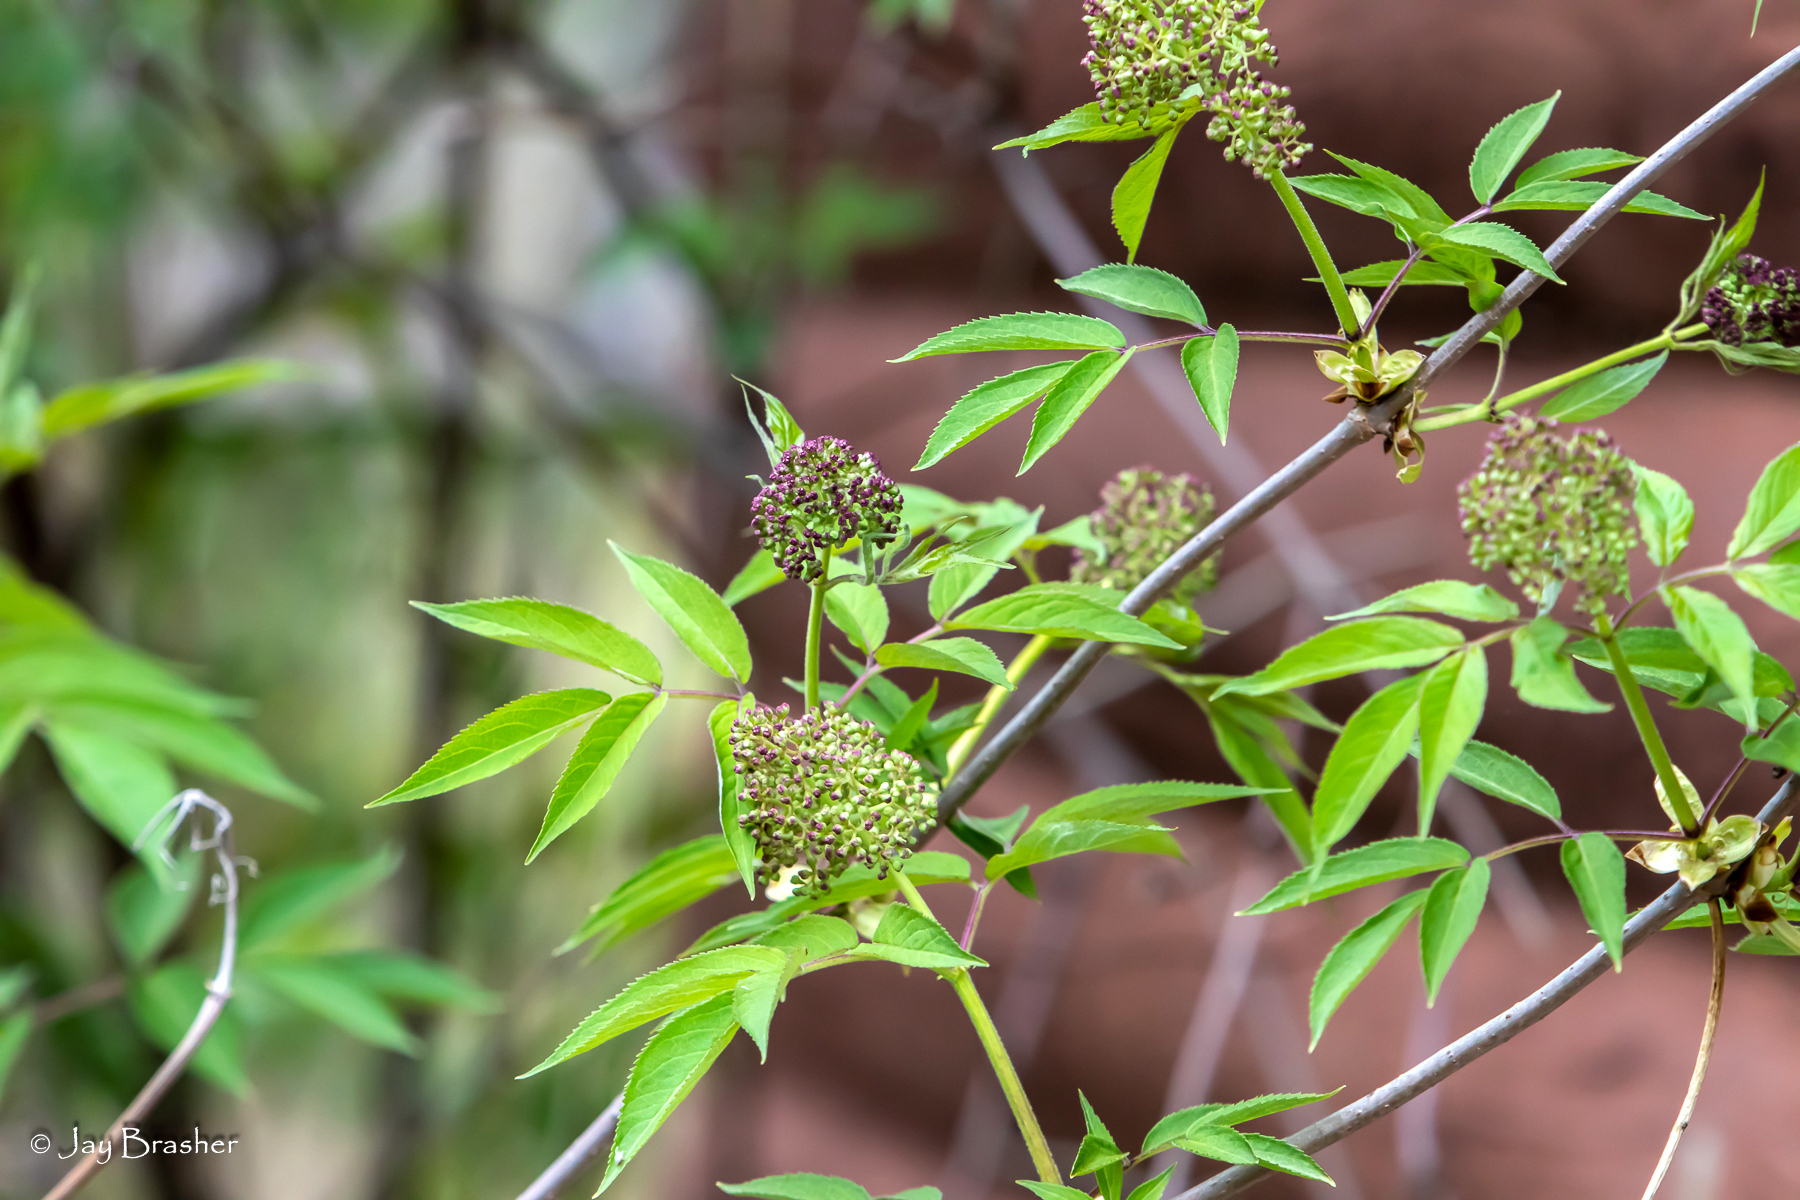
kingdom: Plantae
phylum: Tracheophyta
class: Magnoliopsida
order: Dipsacales
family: Viburnaceae
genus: Sambucus
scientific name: Sambucus racemosa
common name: Red-berried elder
